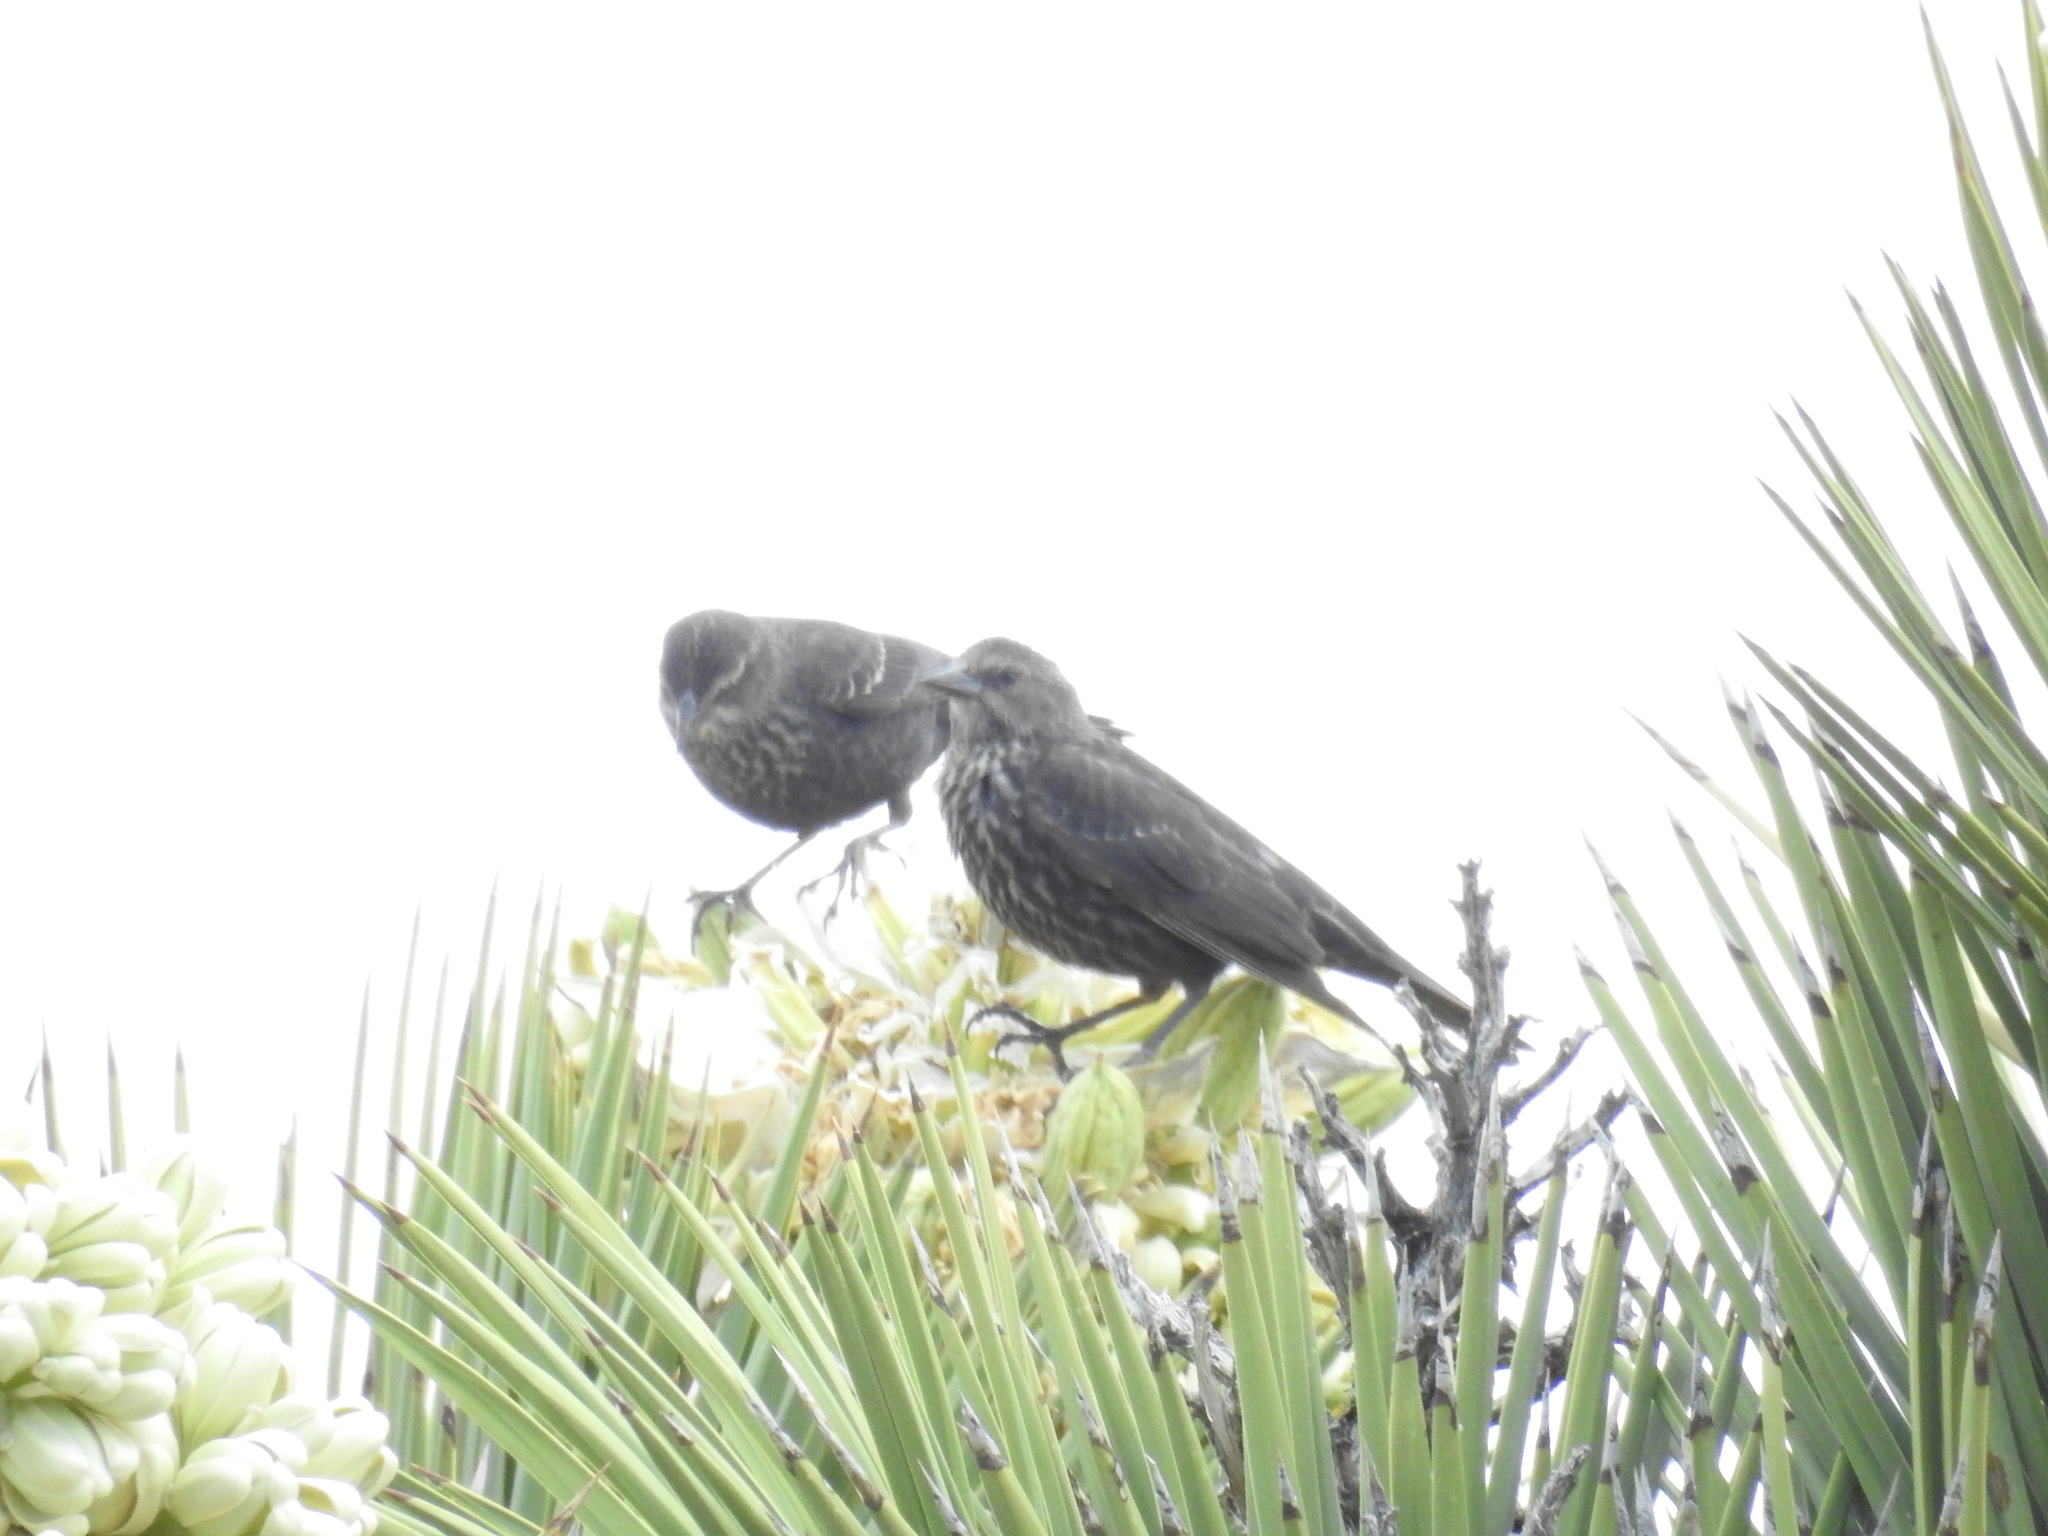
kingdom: Animalia
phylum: Chordata
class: Aves
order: Passeriformes
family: Icteridae
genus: Agelaius
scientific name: Agelaius tricolor
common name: Tricolored blackbird
